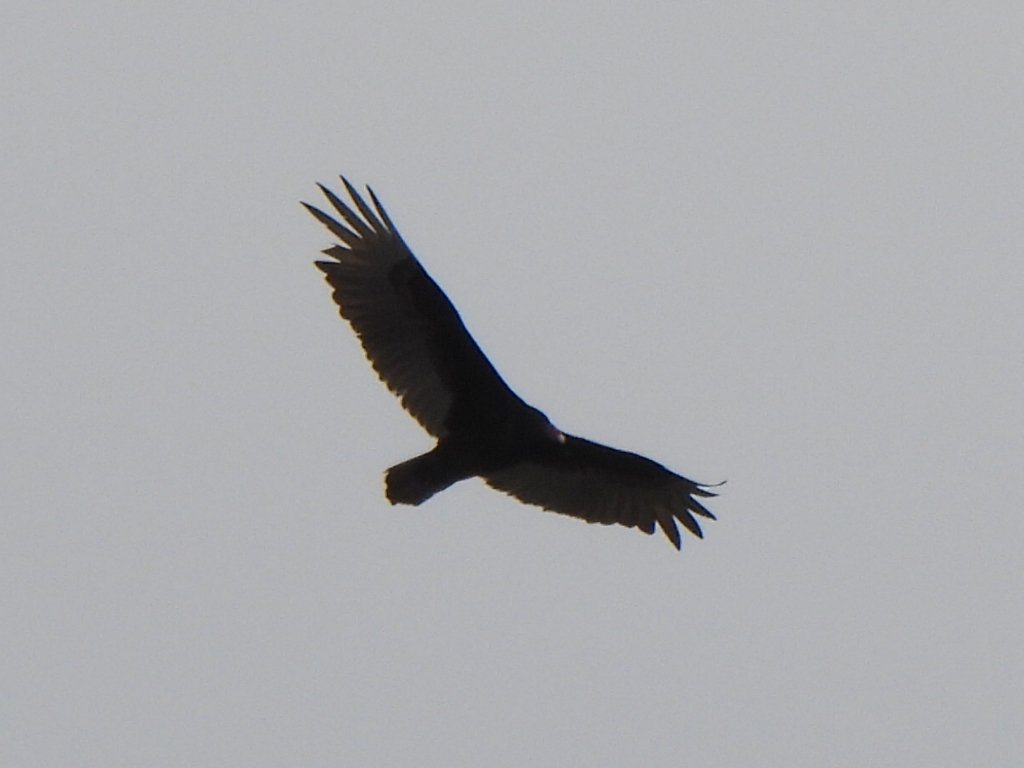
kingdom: Animalia
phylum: Chordata
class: Aves
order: Accipitriformes
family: Cathartidae
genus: Cathartes
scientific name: Cathartes aura
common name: Turkey vulture
